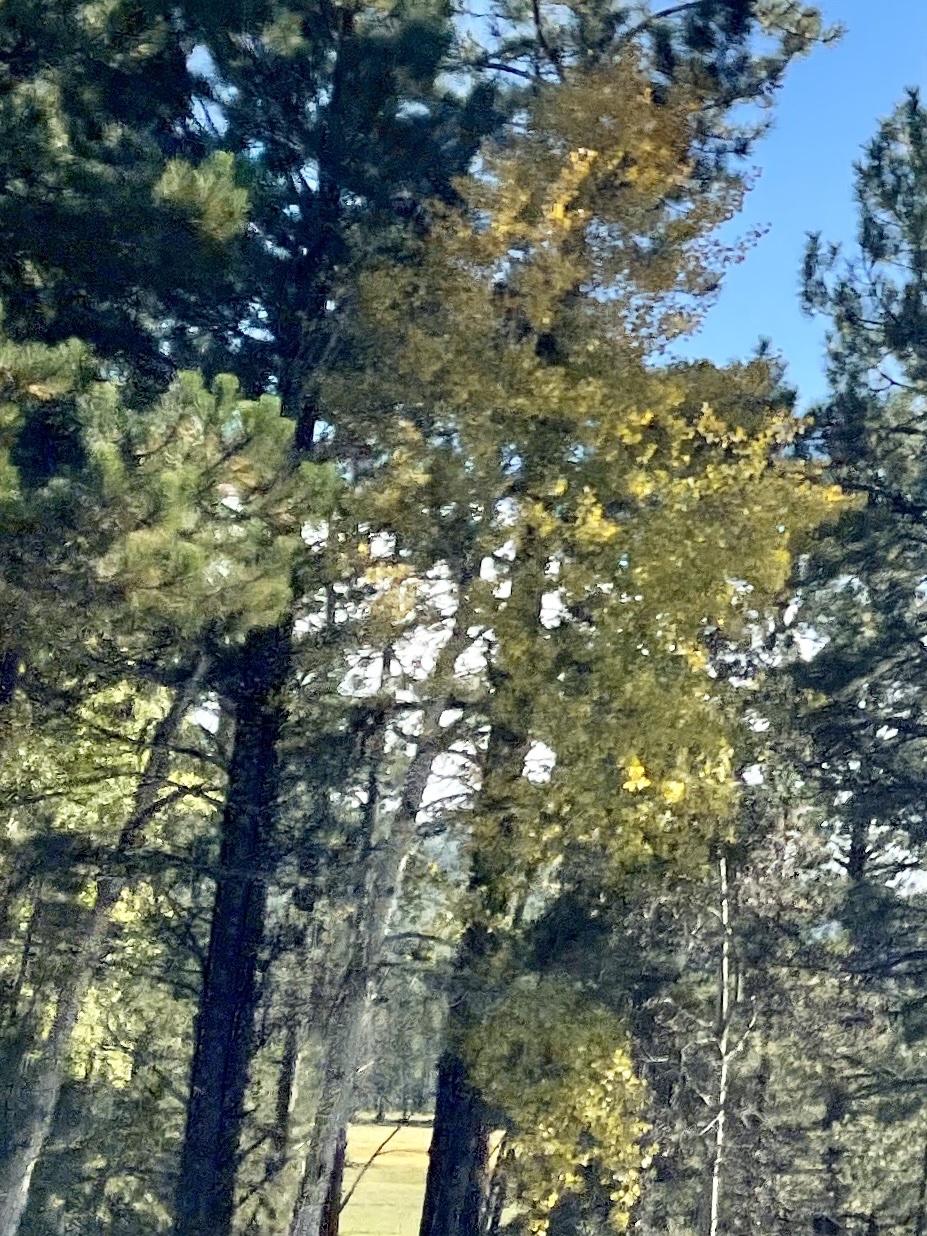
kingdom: Plantae
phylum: Tracheophyta
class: Magnoliopsida
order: Malpighiales
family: Salicaceae
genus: Populus
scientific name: Populus tremuloides
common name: Quaking aspen
